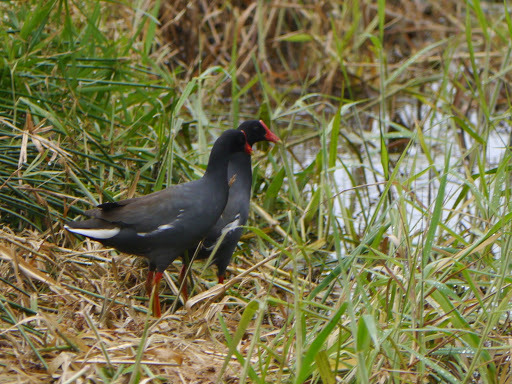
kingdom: Animalia
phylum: Chordata
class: Aves
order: Gruiformes
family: Rallidae
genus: Gallinula
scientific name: Gallinula chloropus
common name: Common moorhen
